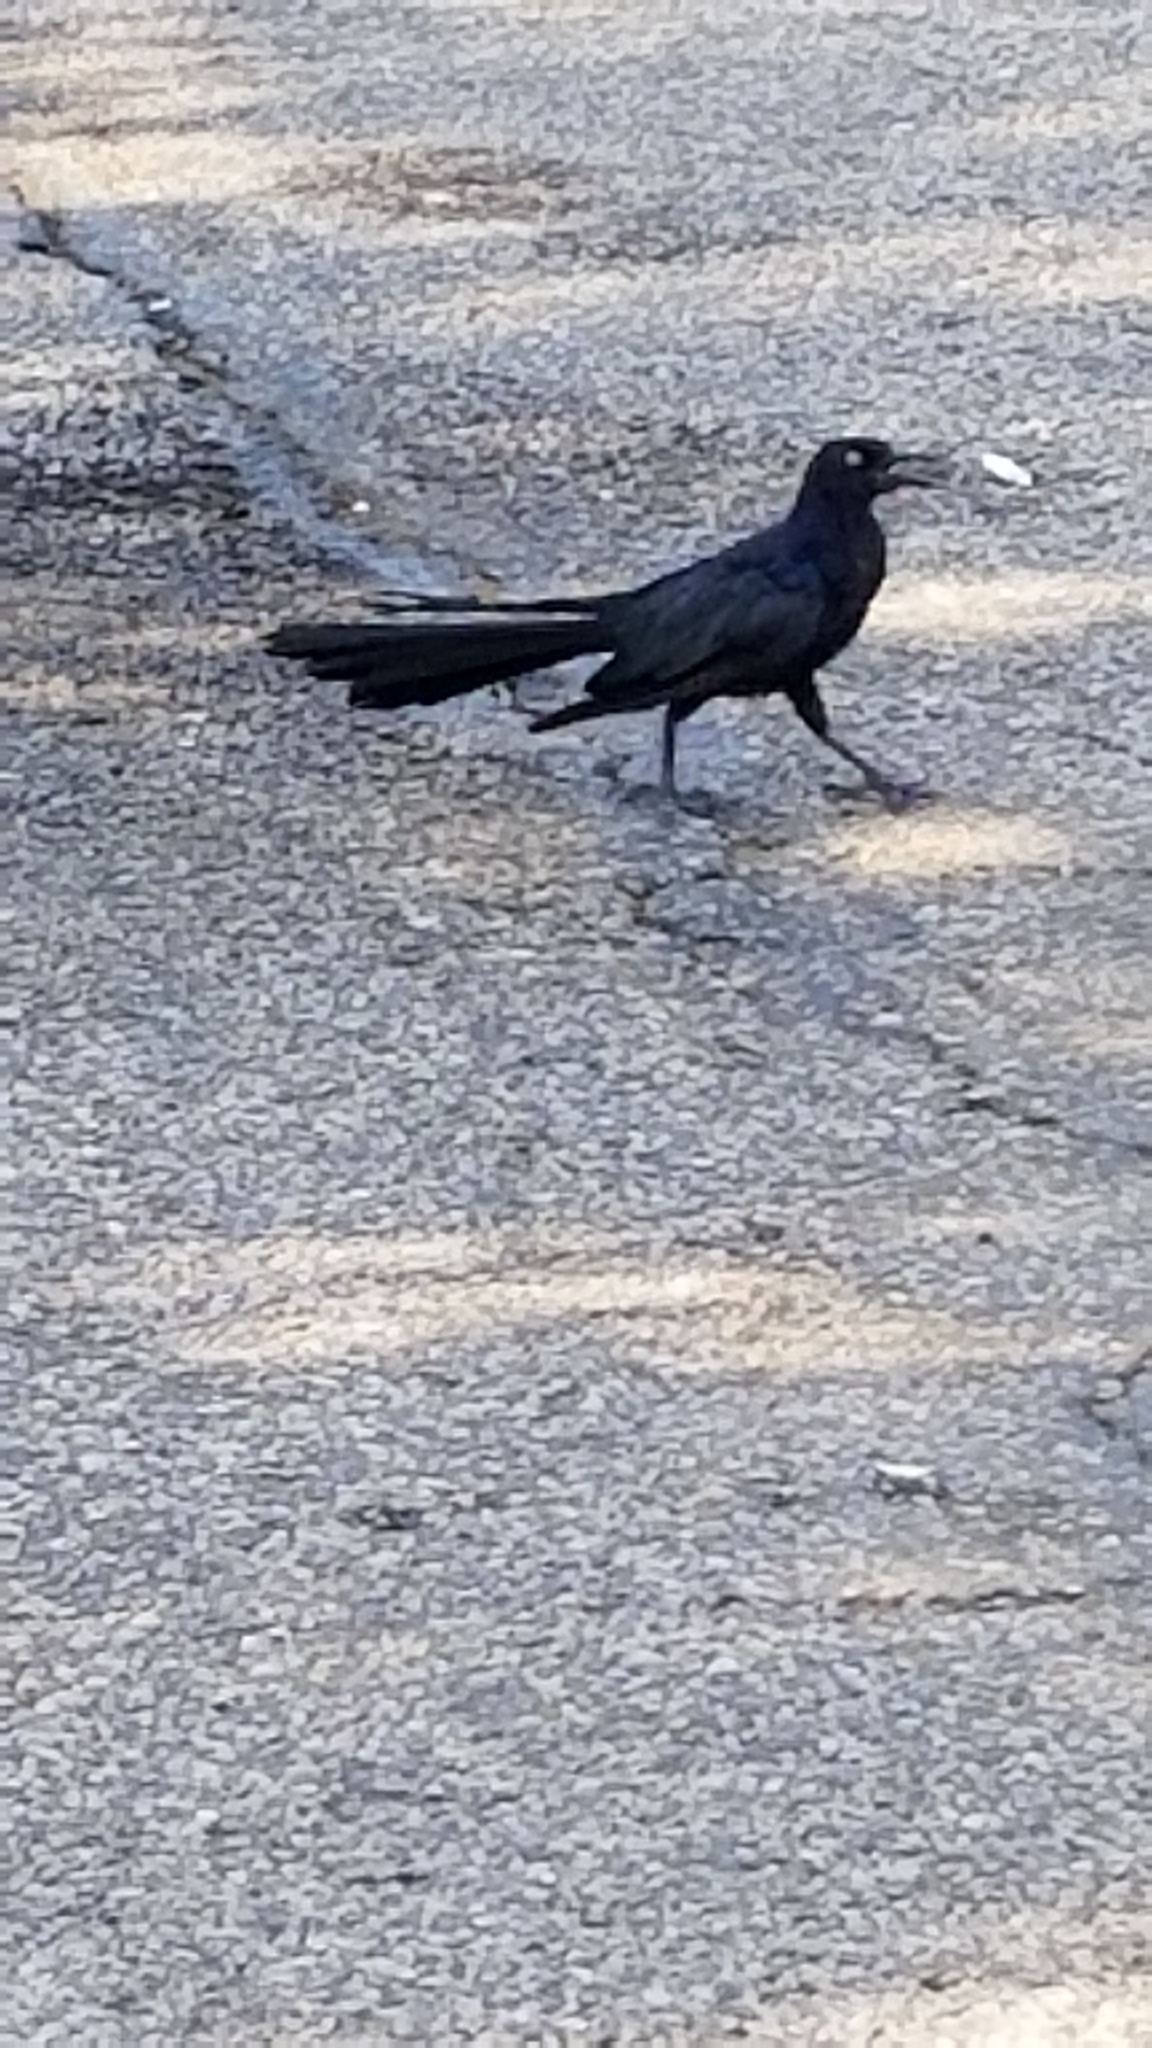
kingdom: Animalia
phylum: Chordata
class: Aves
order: Passeriformes
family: Icteridae
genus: Quiscalus
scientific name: Quiscalus mexicanus
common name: Great-tailed grackle
